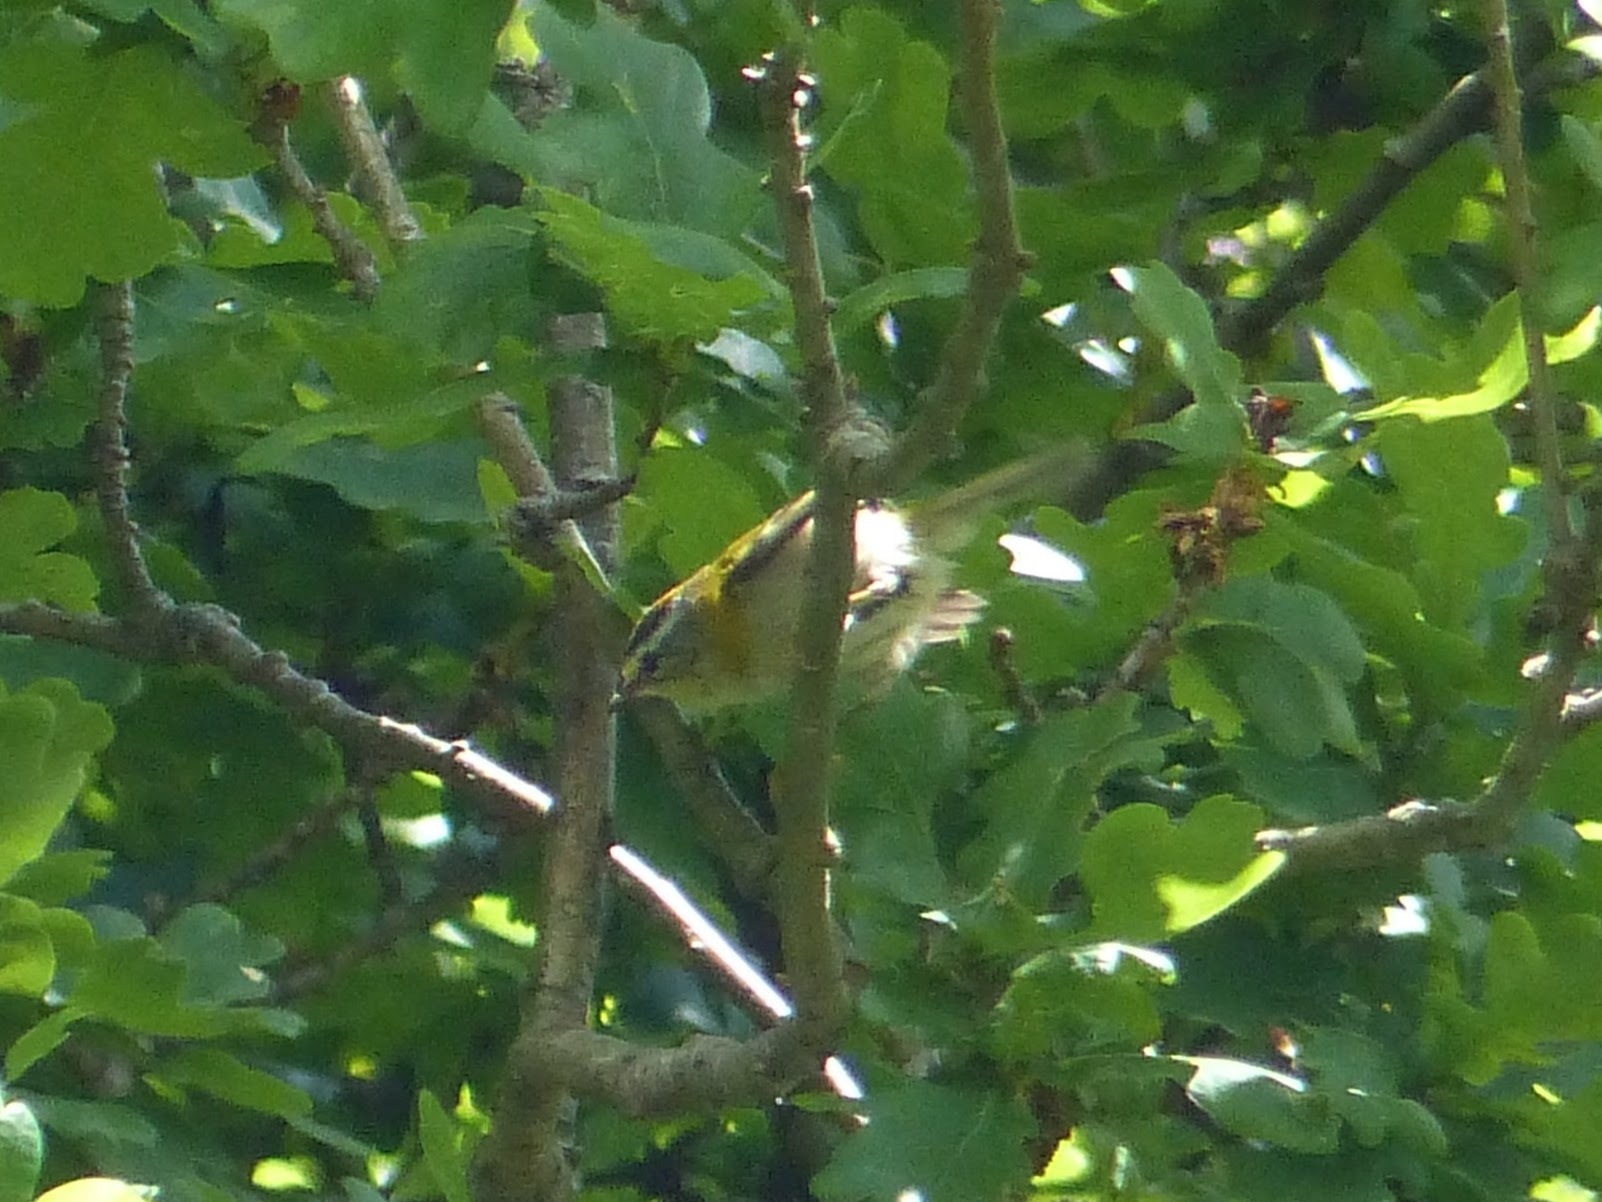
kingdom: Animalia
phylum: Chordata
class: Aves
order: Passeriformes
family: Regulidae
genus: Regulus
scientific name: Regulus ignicapilla
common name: Firecrest
